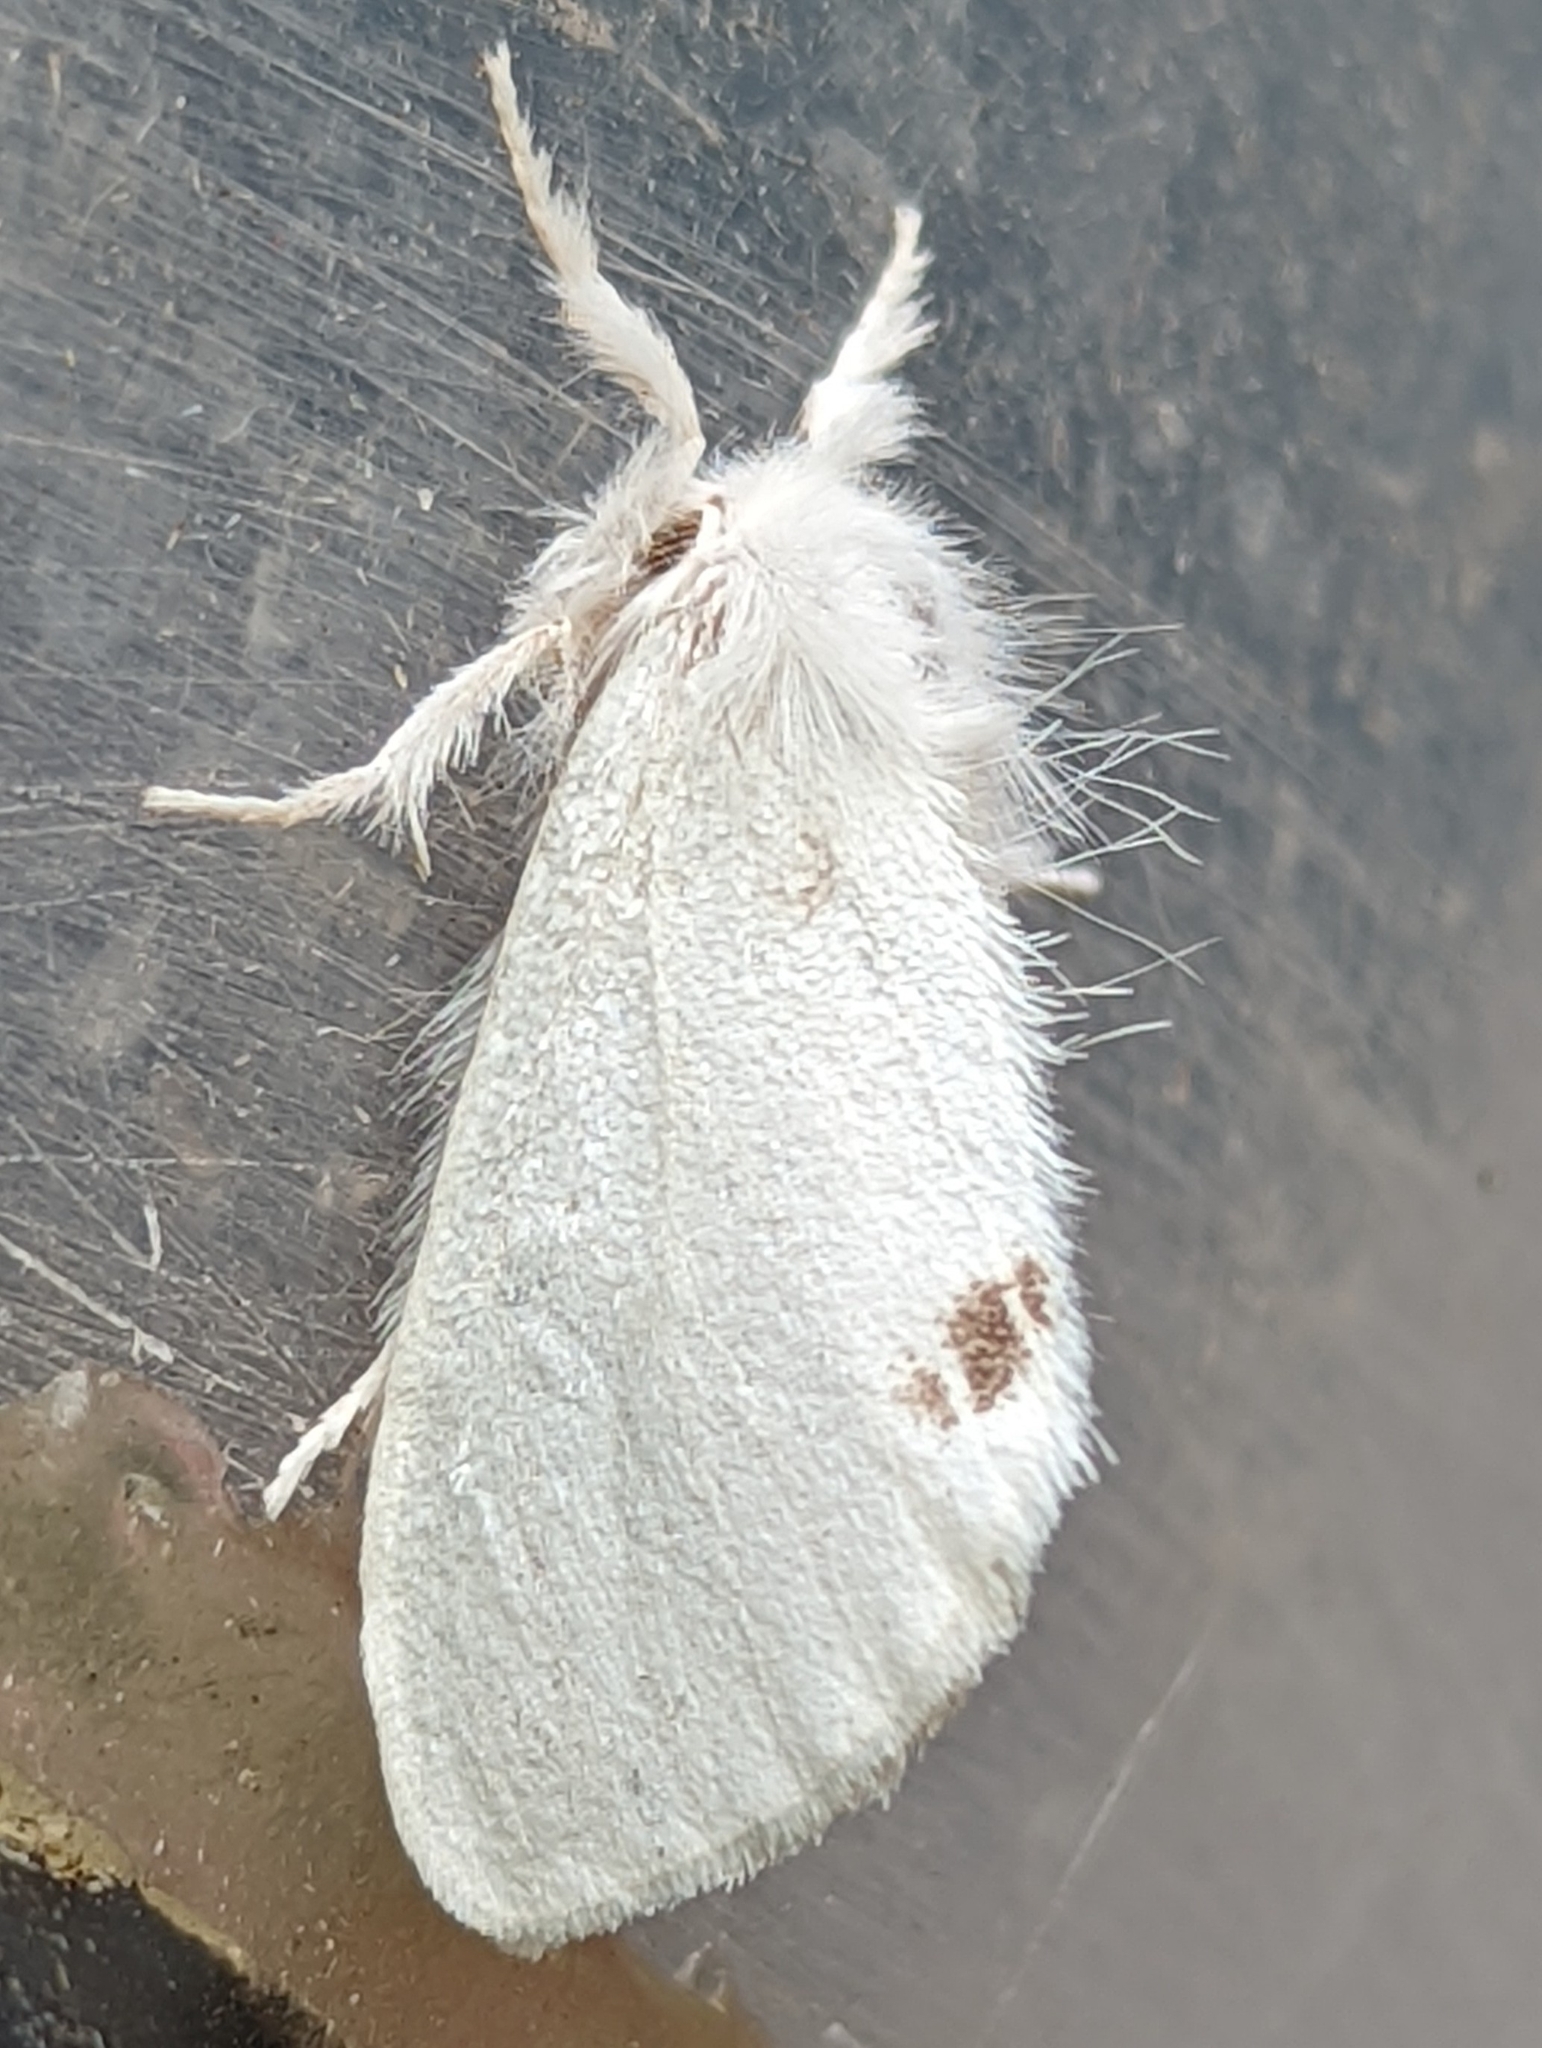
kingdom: Animalia
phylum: Arthropoda
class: Insecta
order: Lepidoptera
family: Erebidae
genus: Sphrageidus
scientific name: Sphrageidus similis
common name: Yellow-tail
